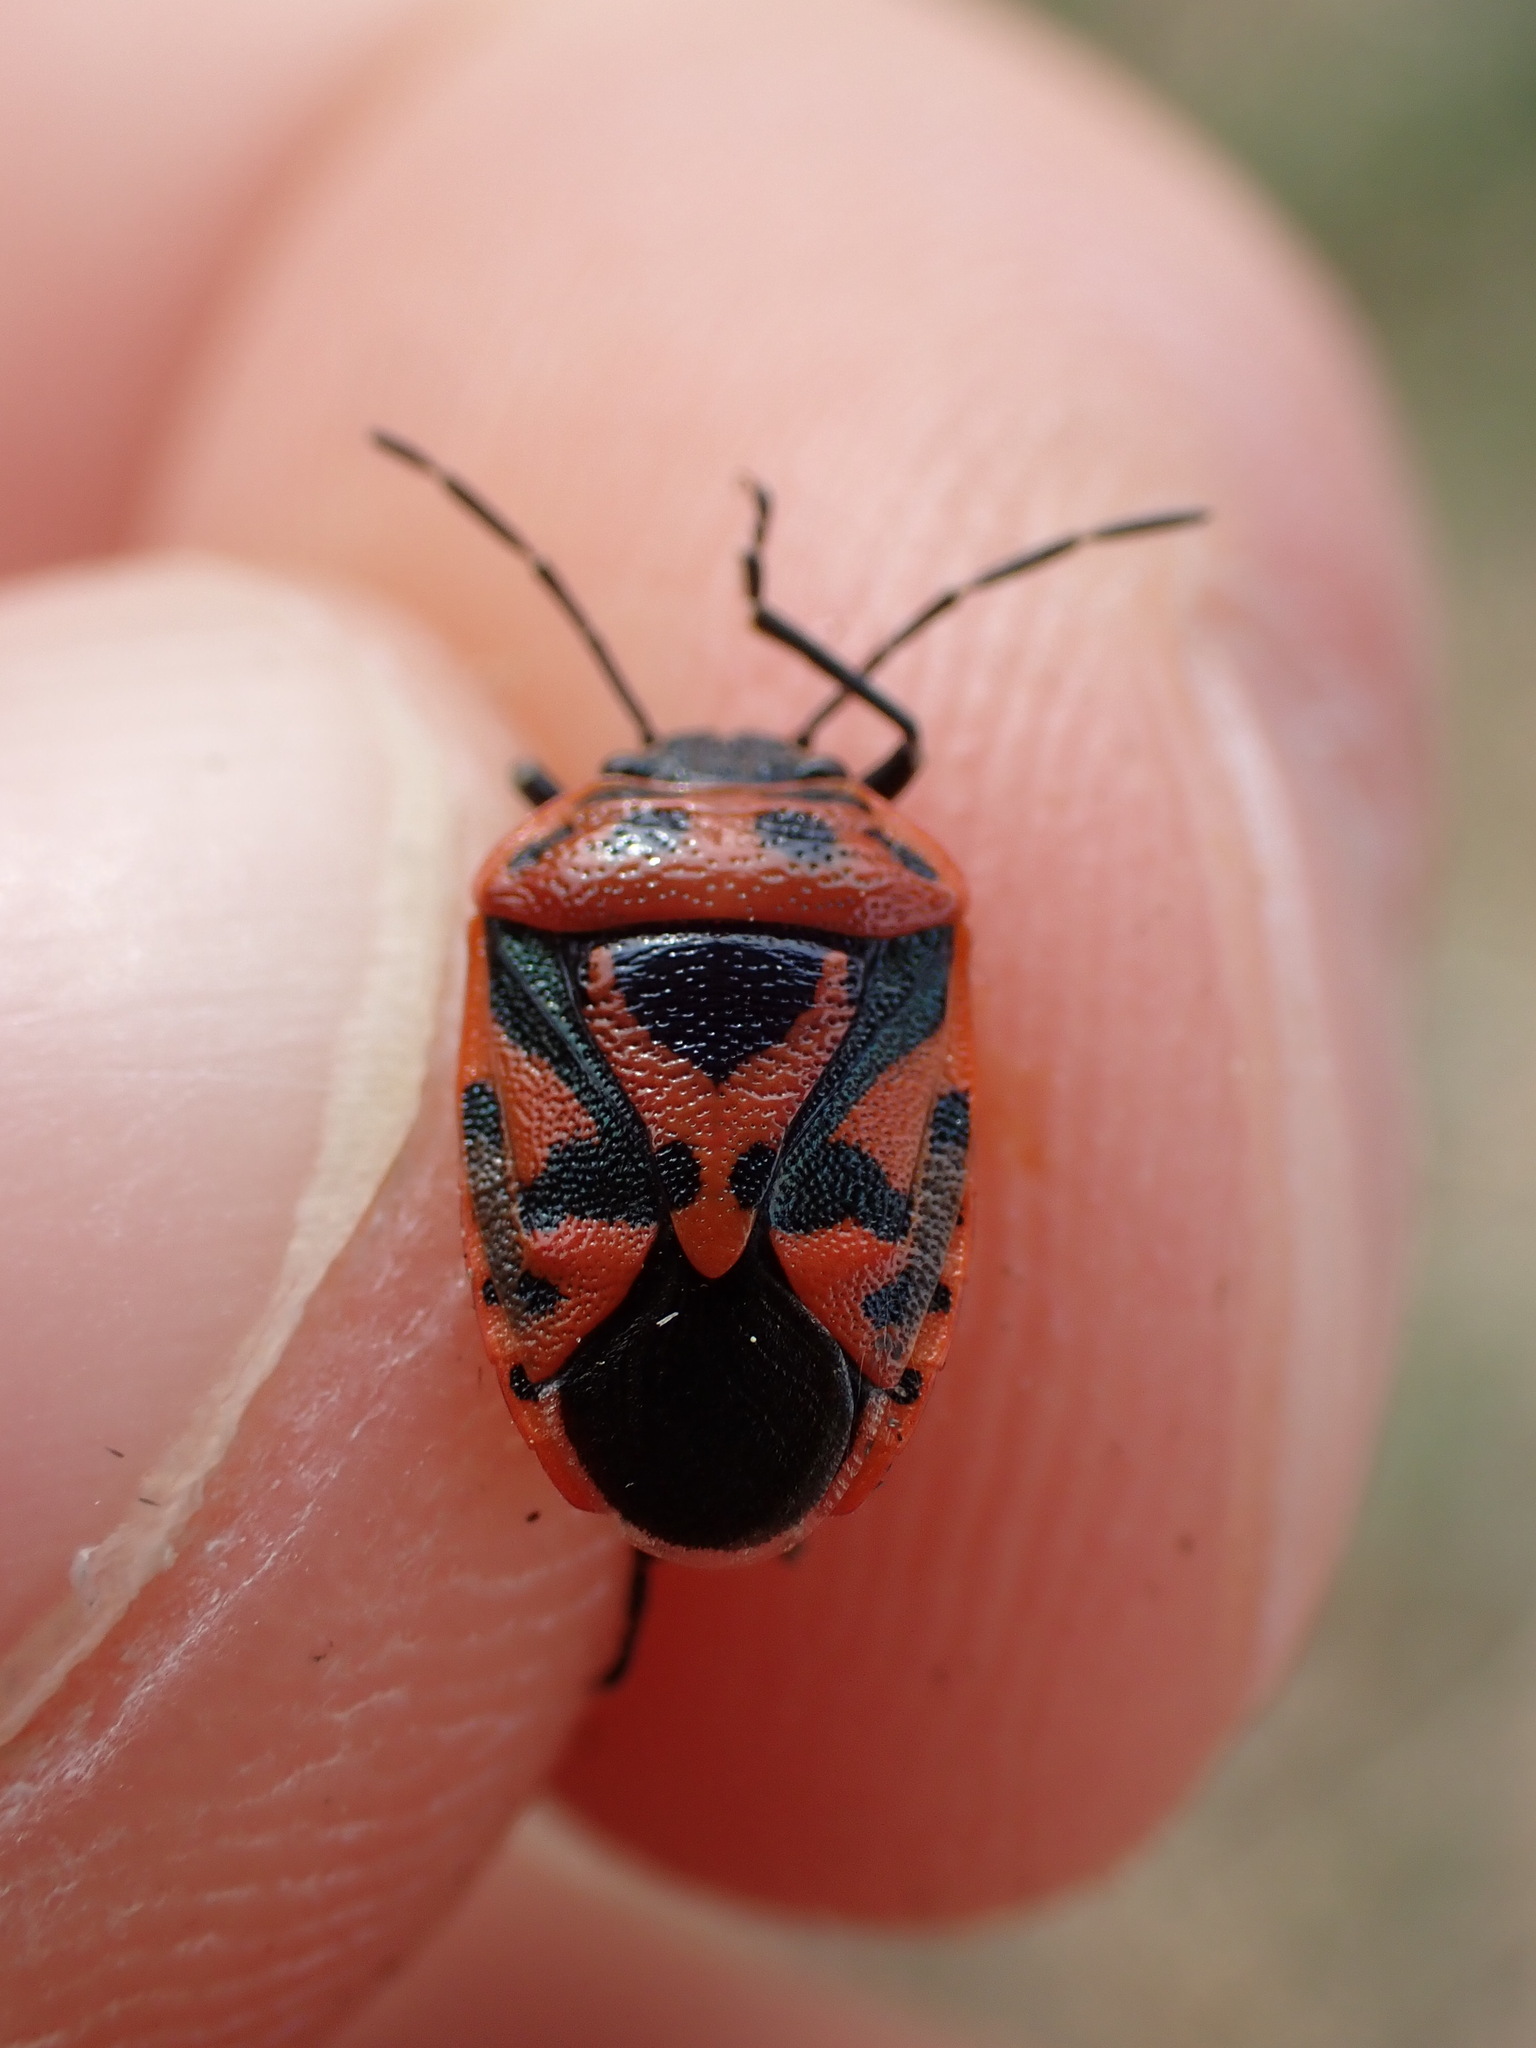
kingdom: Animalia
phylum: Arthropoda
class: Insecta
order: Hemiptera
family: Pentatomidae
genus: Eurydema
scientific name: Eurydema ornata
